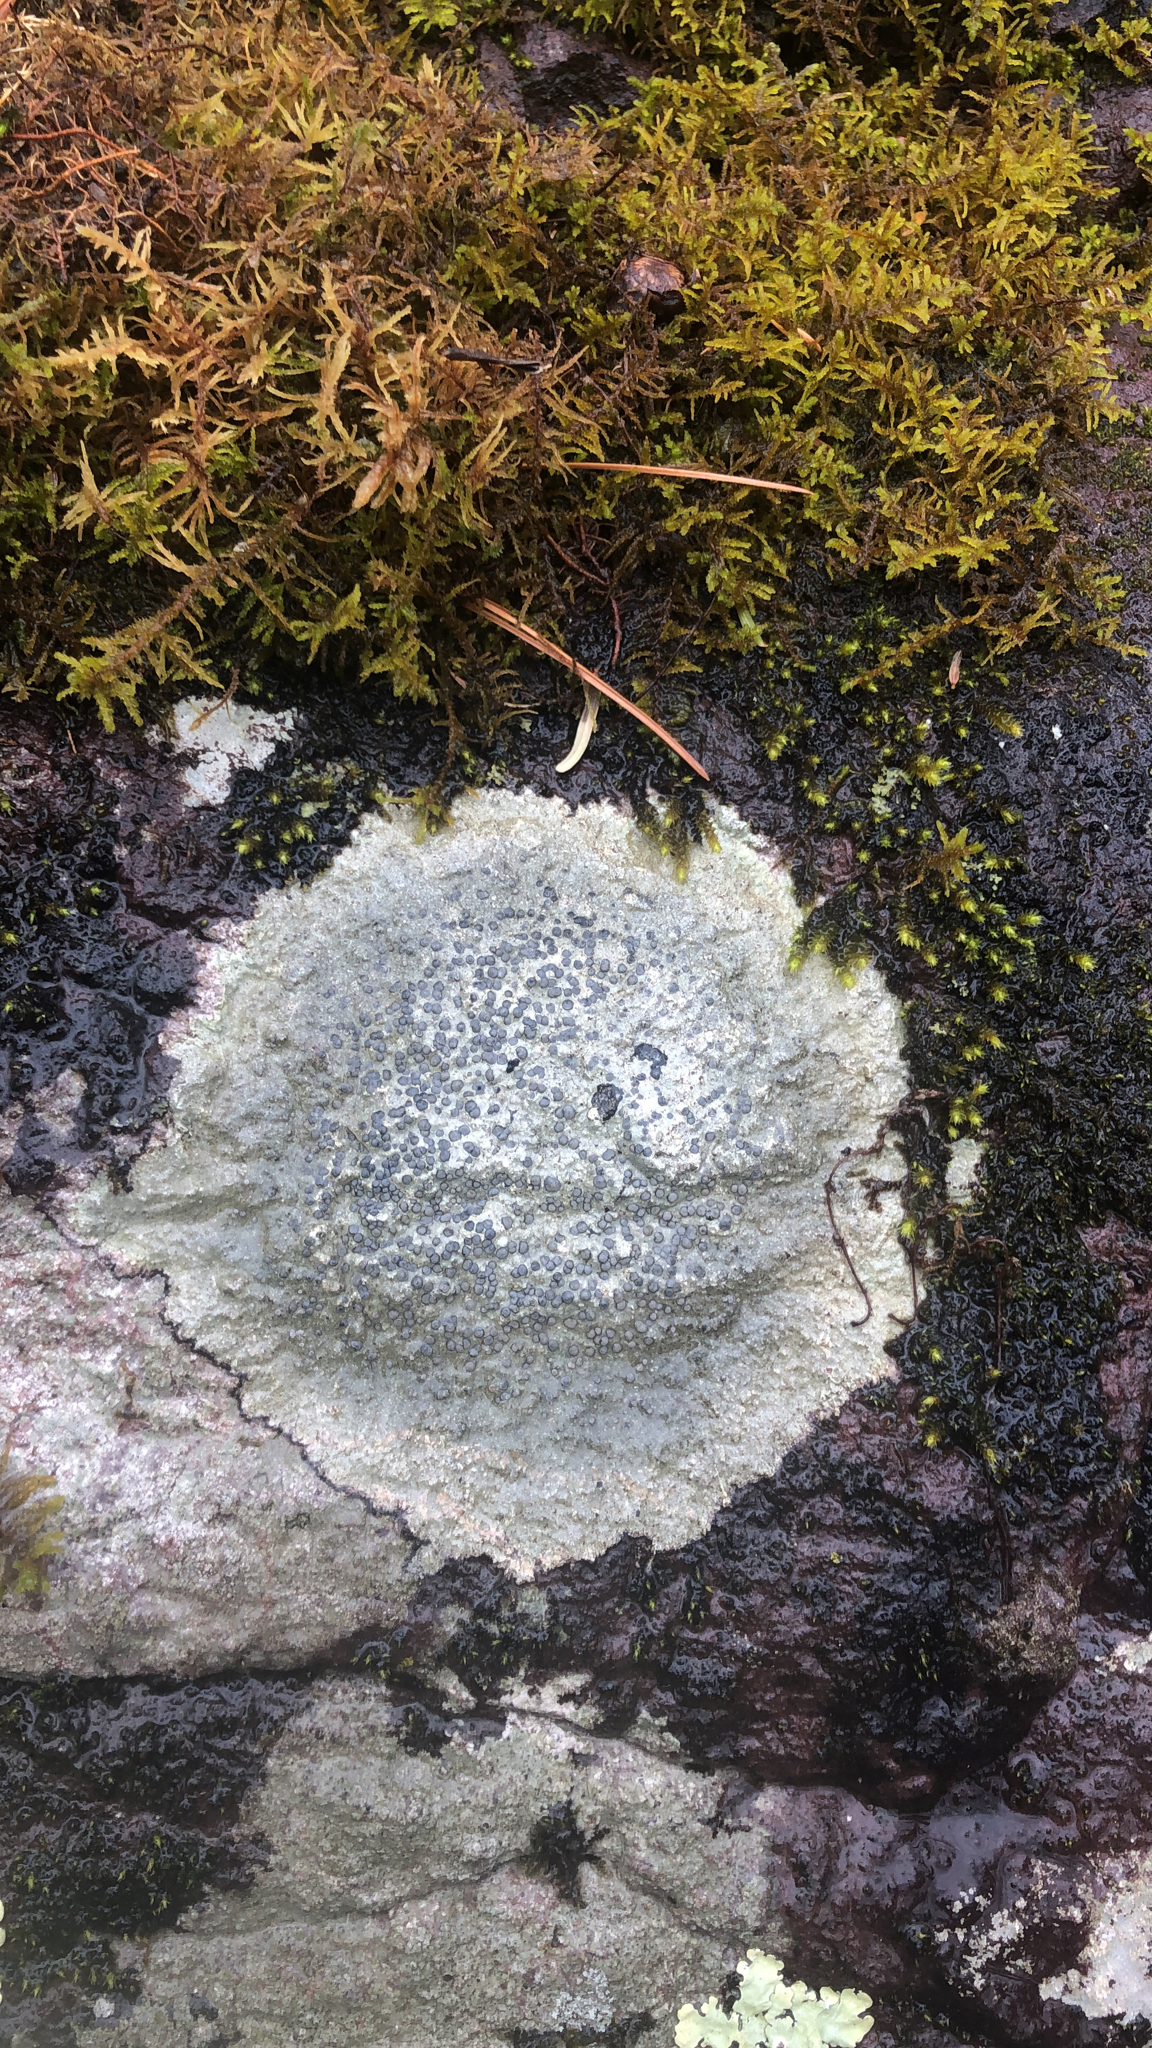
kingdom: Fungi
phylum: Ascomycota
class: Lecanoromycetes
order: Lecideales
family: Lecideaceae
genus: Porpidia
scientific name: Porpidia albocaerulescens
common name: Smokey-eyed boulder lichen
